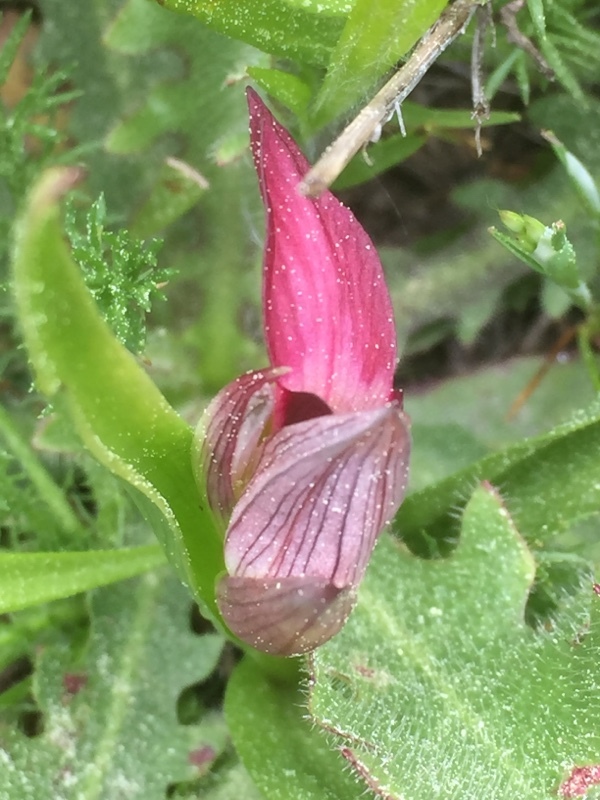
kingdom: Plantae
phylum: Tracheophyta
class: Liliopsida
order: Asparagales
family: Orchidaceae
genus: Serapias
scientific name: Serapias lingua
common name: Tongue-orchid
